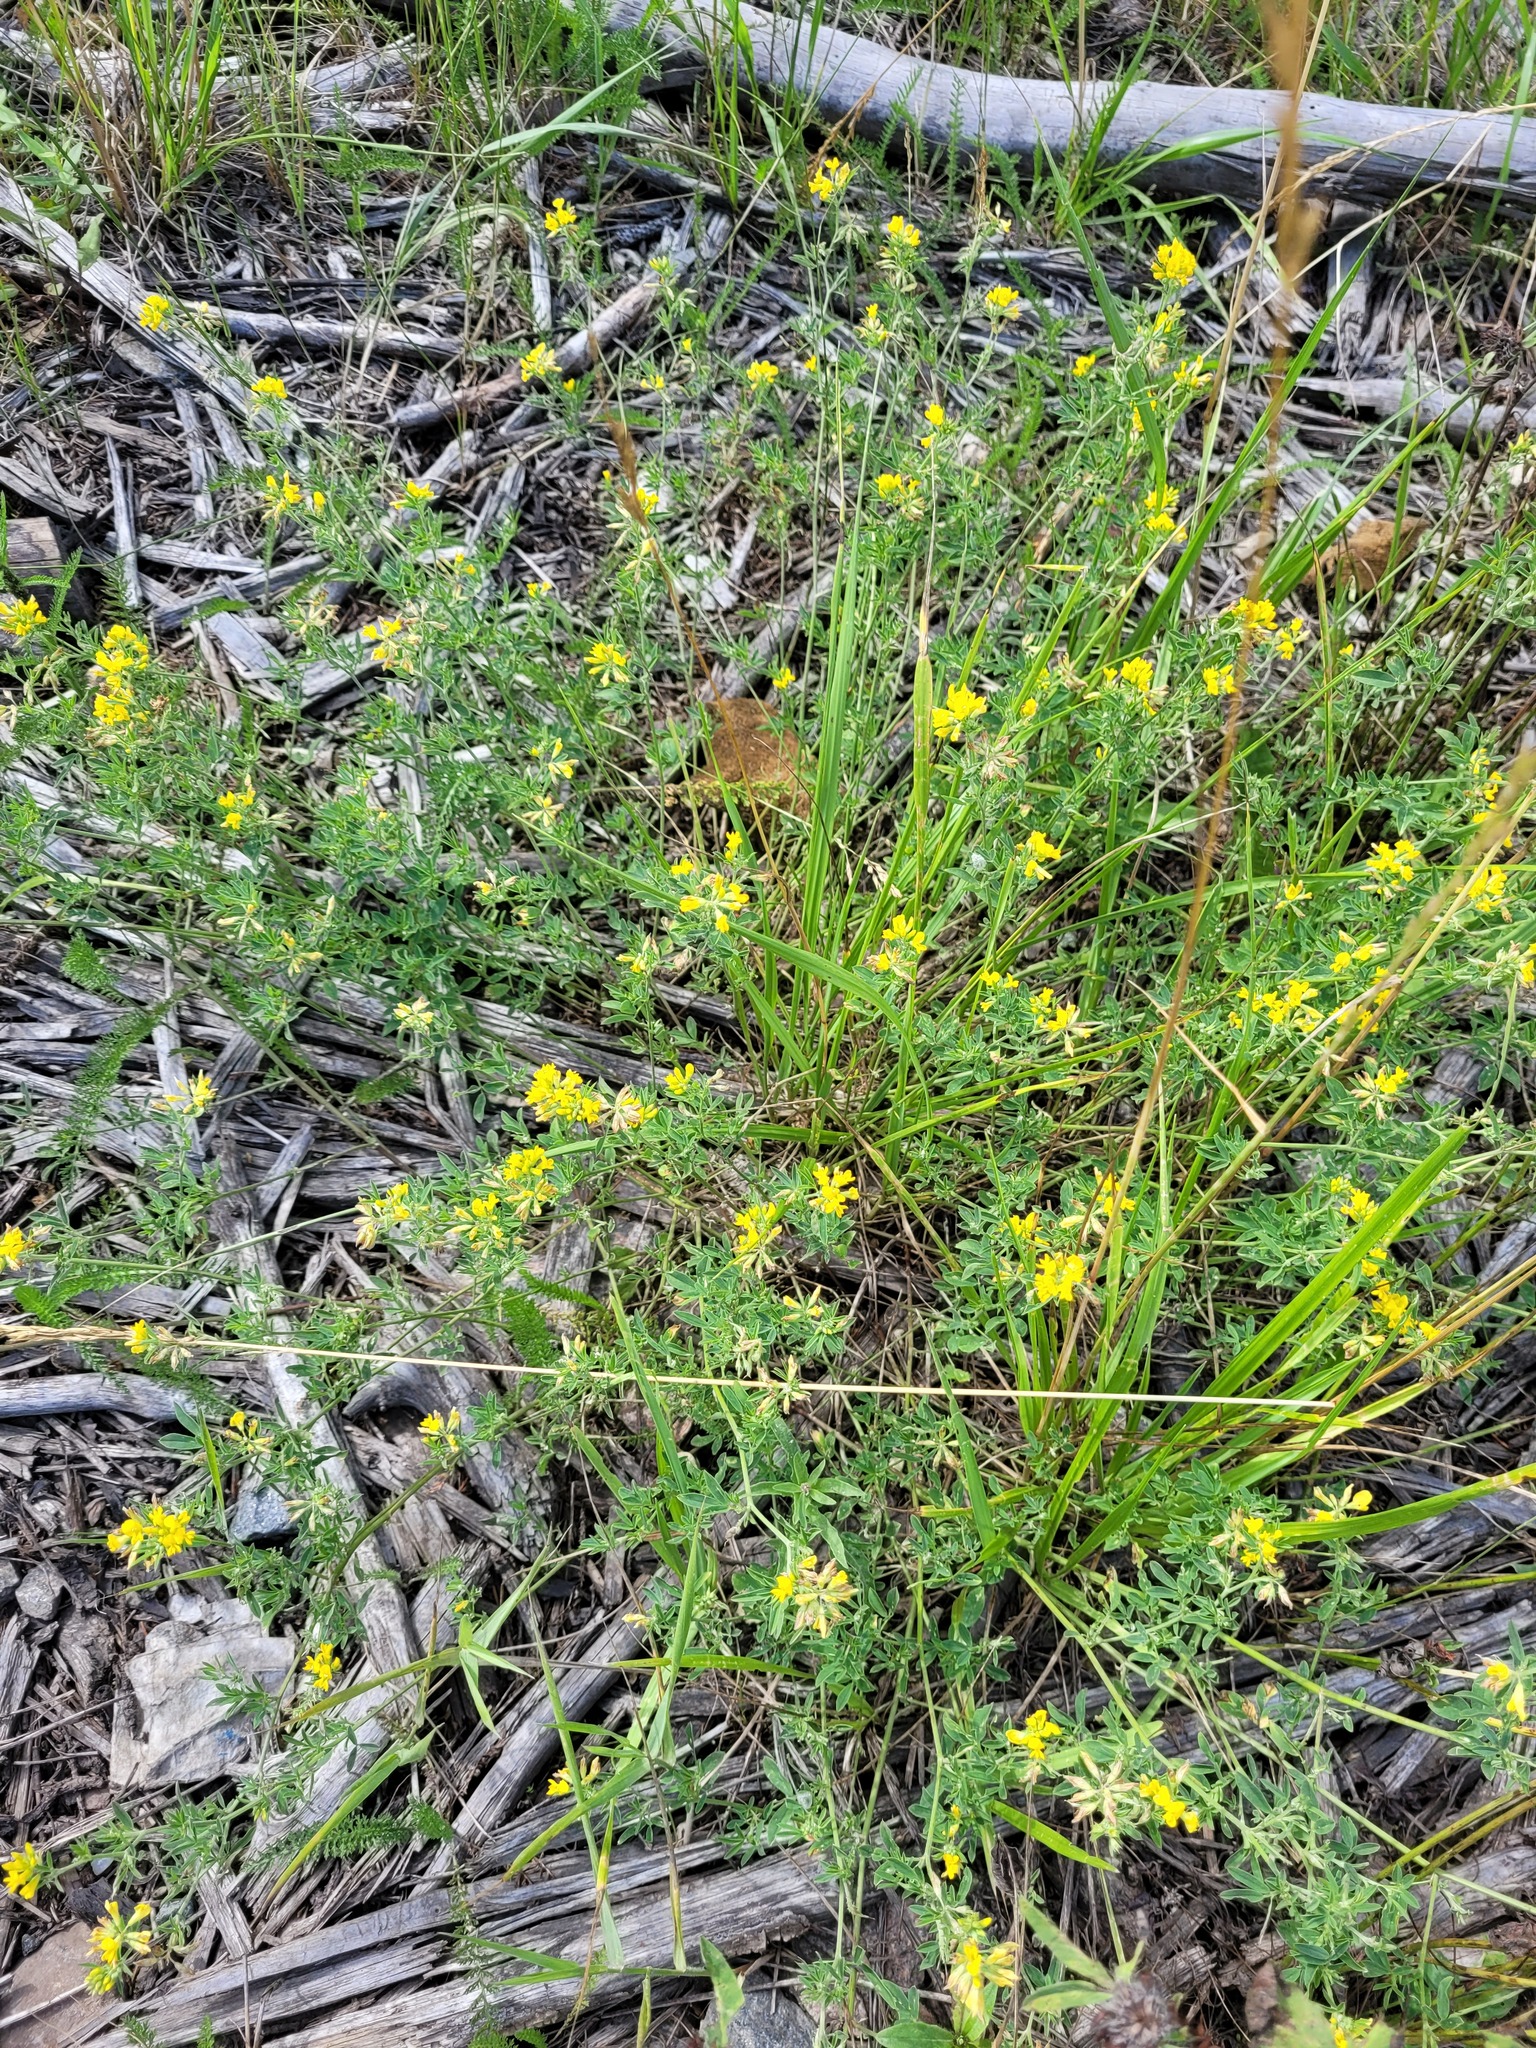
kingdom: Plantae
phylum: Tracheophyta
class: Magnoliopsida
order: Fabales
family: Fabaceae
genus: Medicago
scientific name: Medicago falcata
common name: Sickle medick
